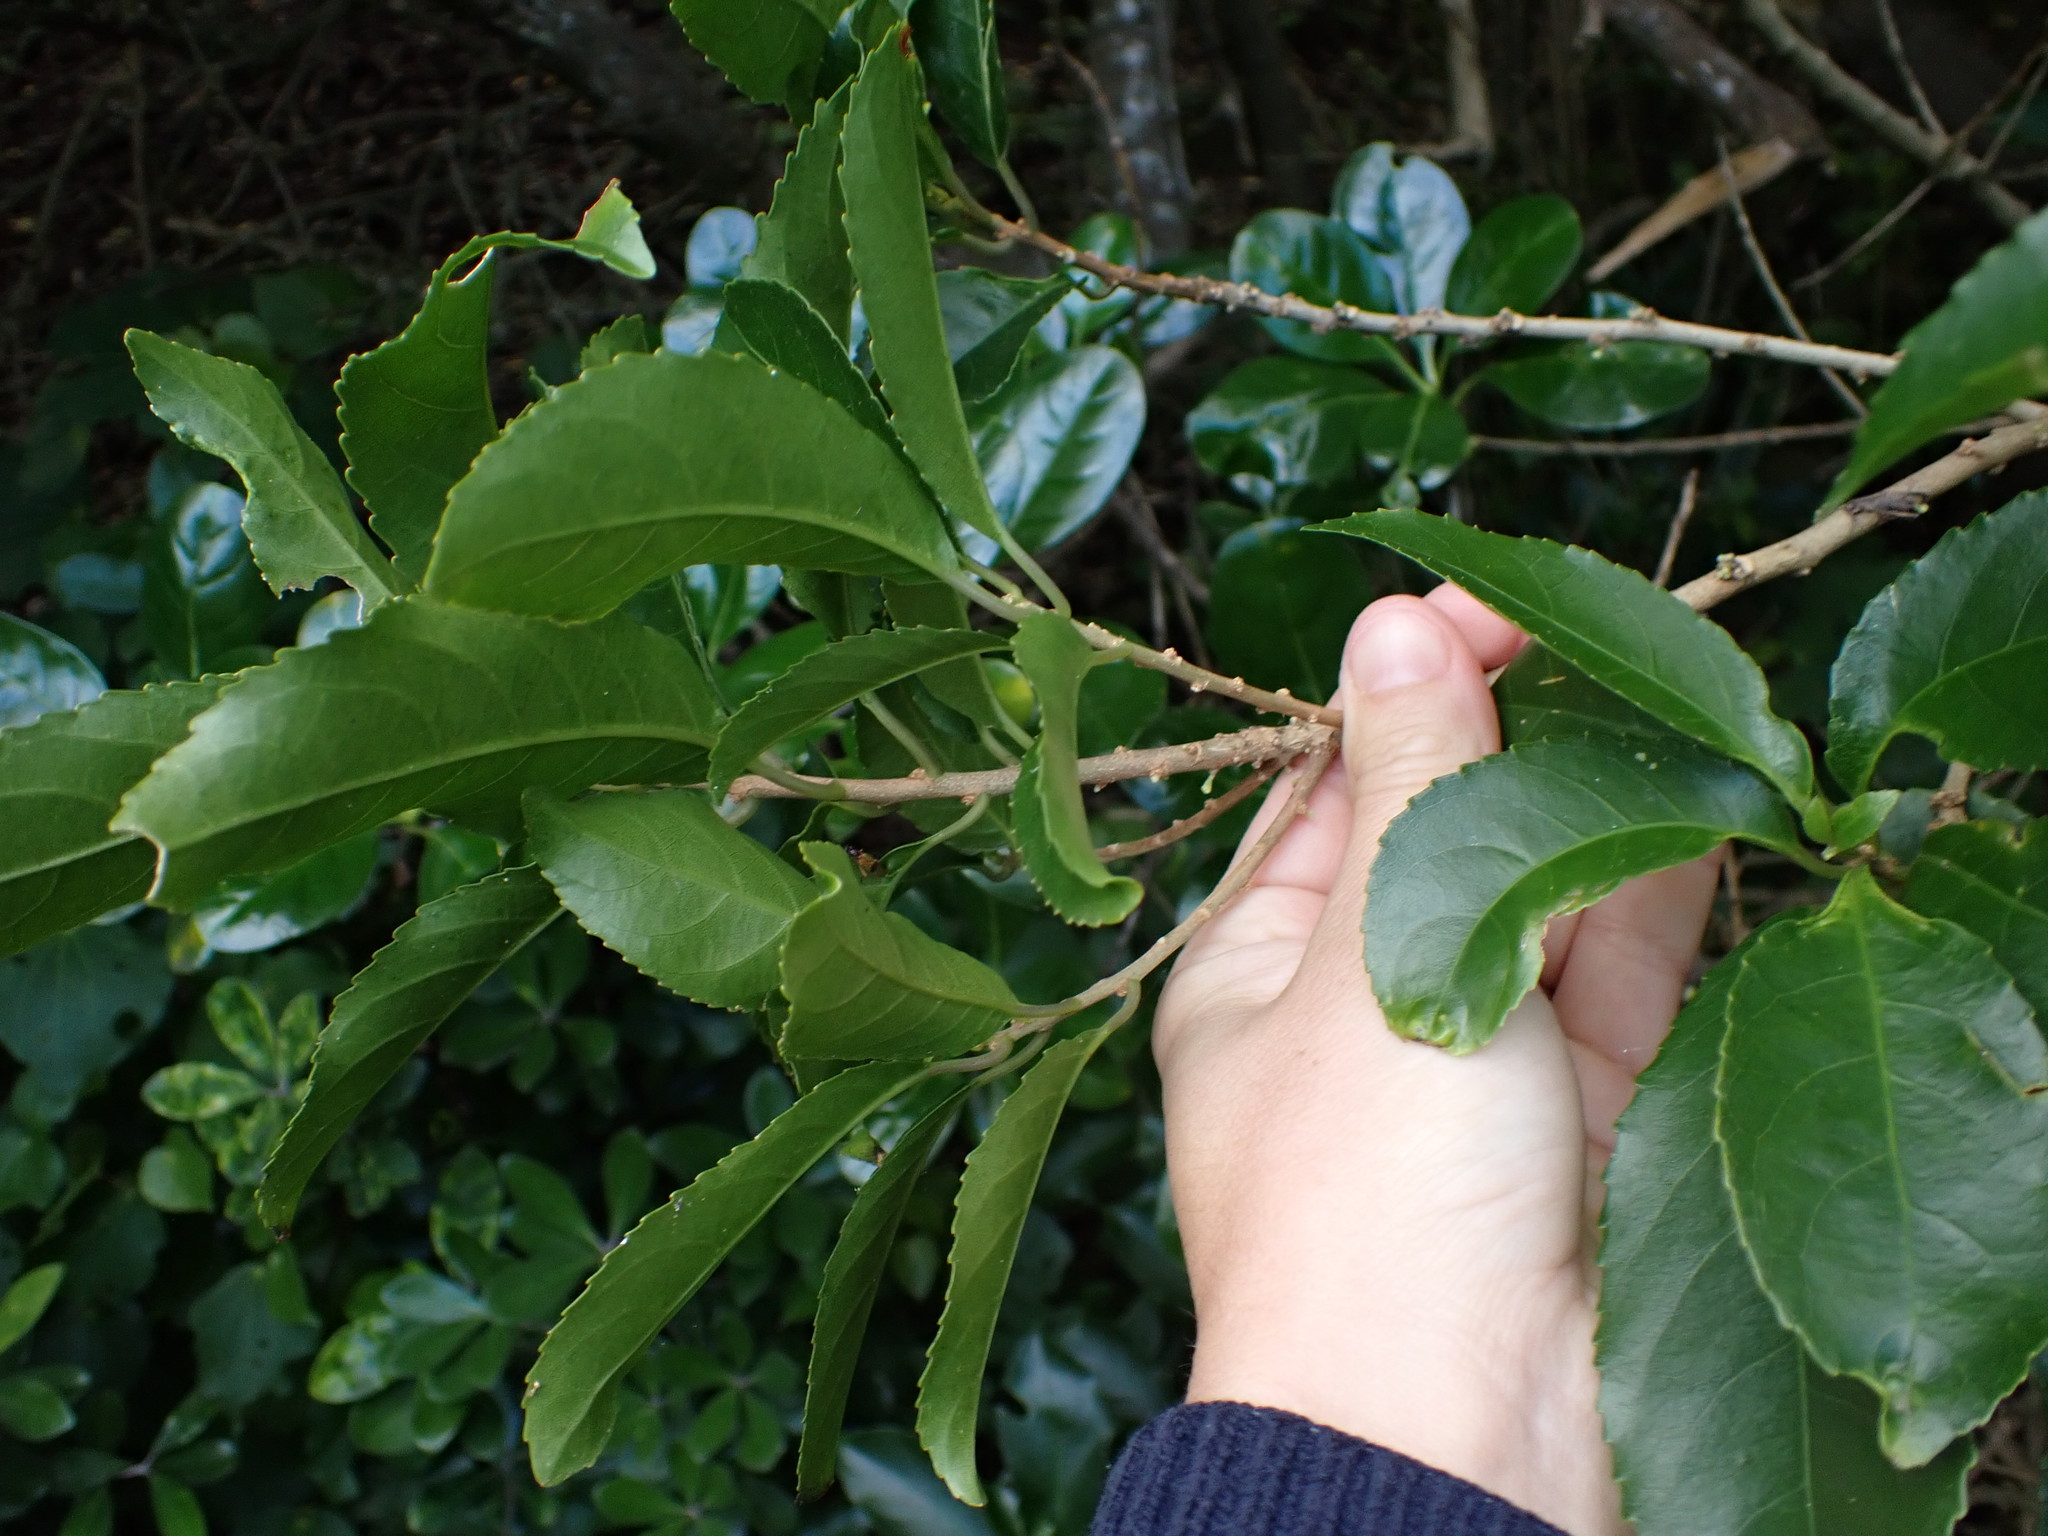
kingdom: Plantae
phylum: Tracheophyta
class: Magnoliopsida
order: Malpighiales
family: Violaceae
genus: Melicytus
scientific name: Melicytus ramiflorus
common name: Mahoe
